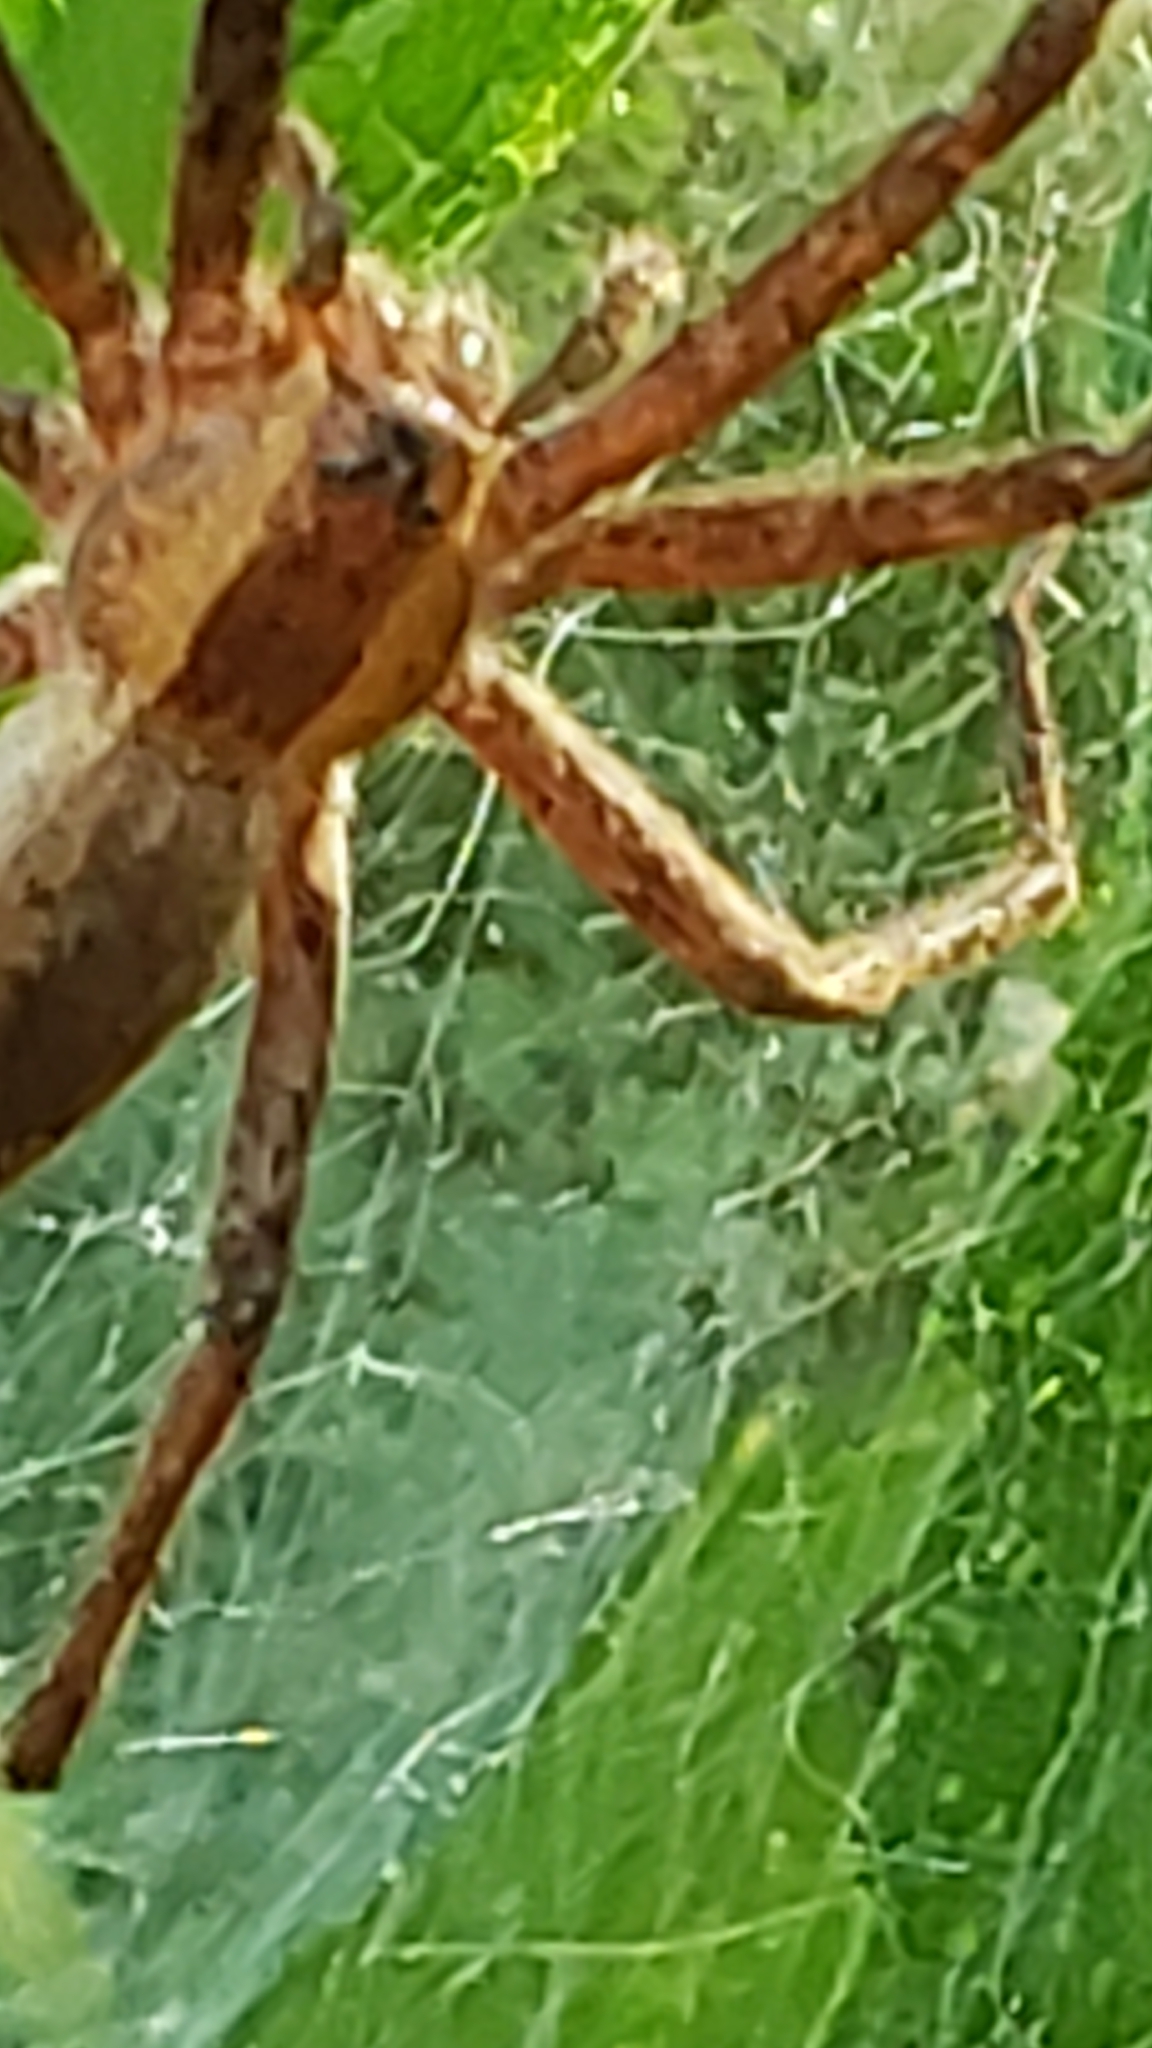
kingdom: Animalia
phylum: Arthropoda
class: Arachnida
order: Araneae
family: Pisauridae
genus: Pisaurina
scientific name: Pisaurina mira
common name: American nursery web spider
